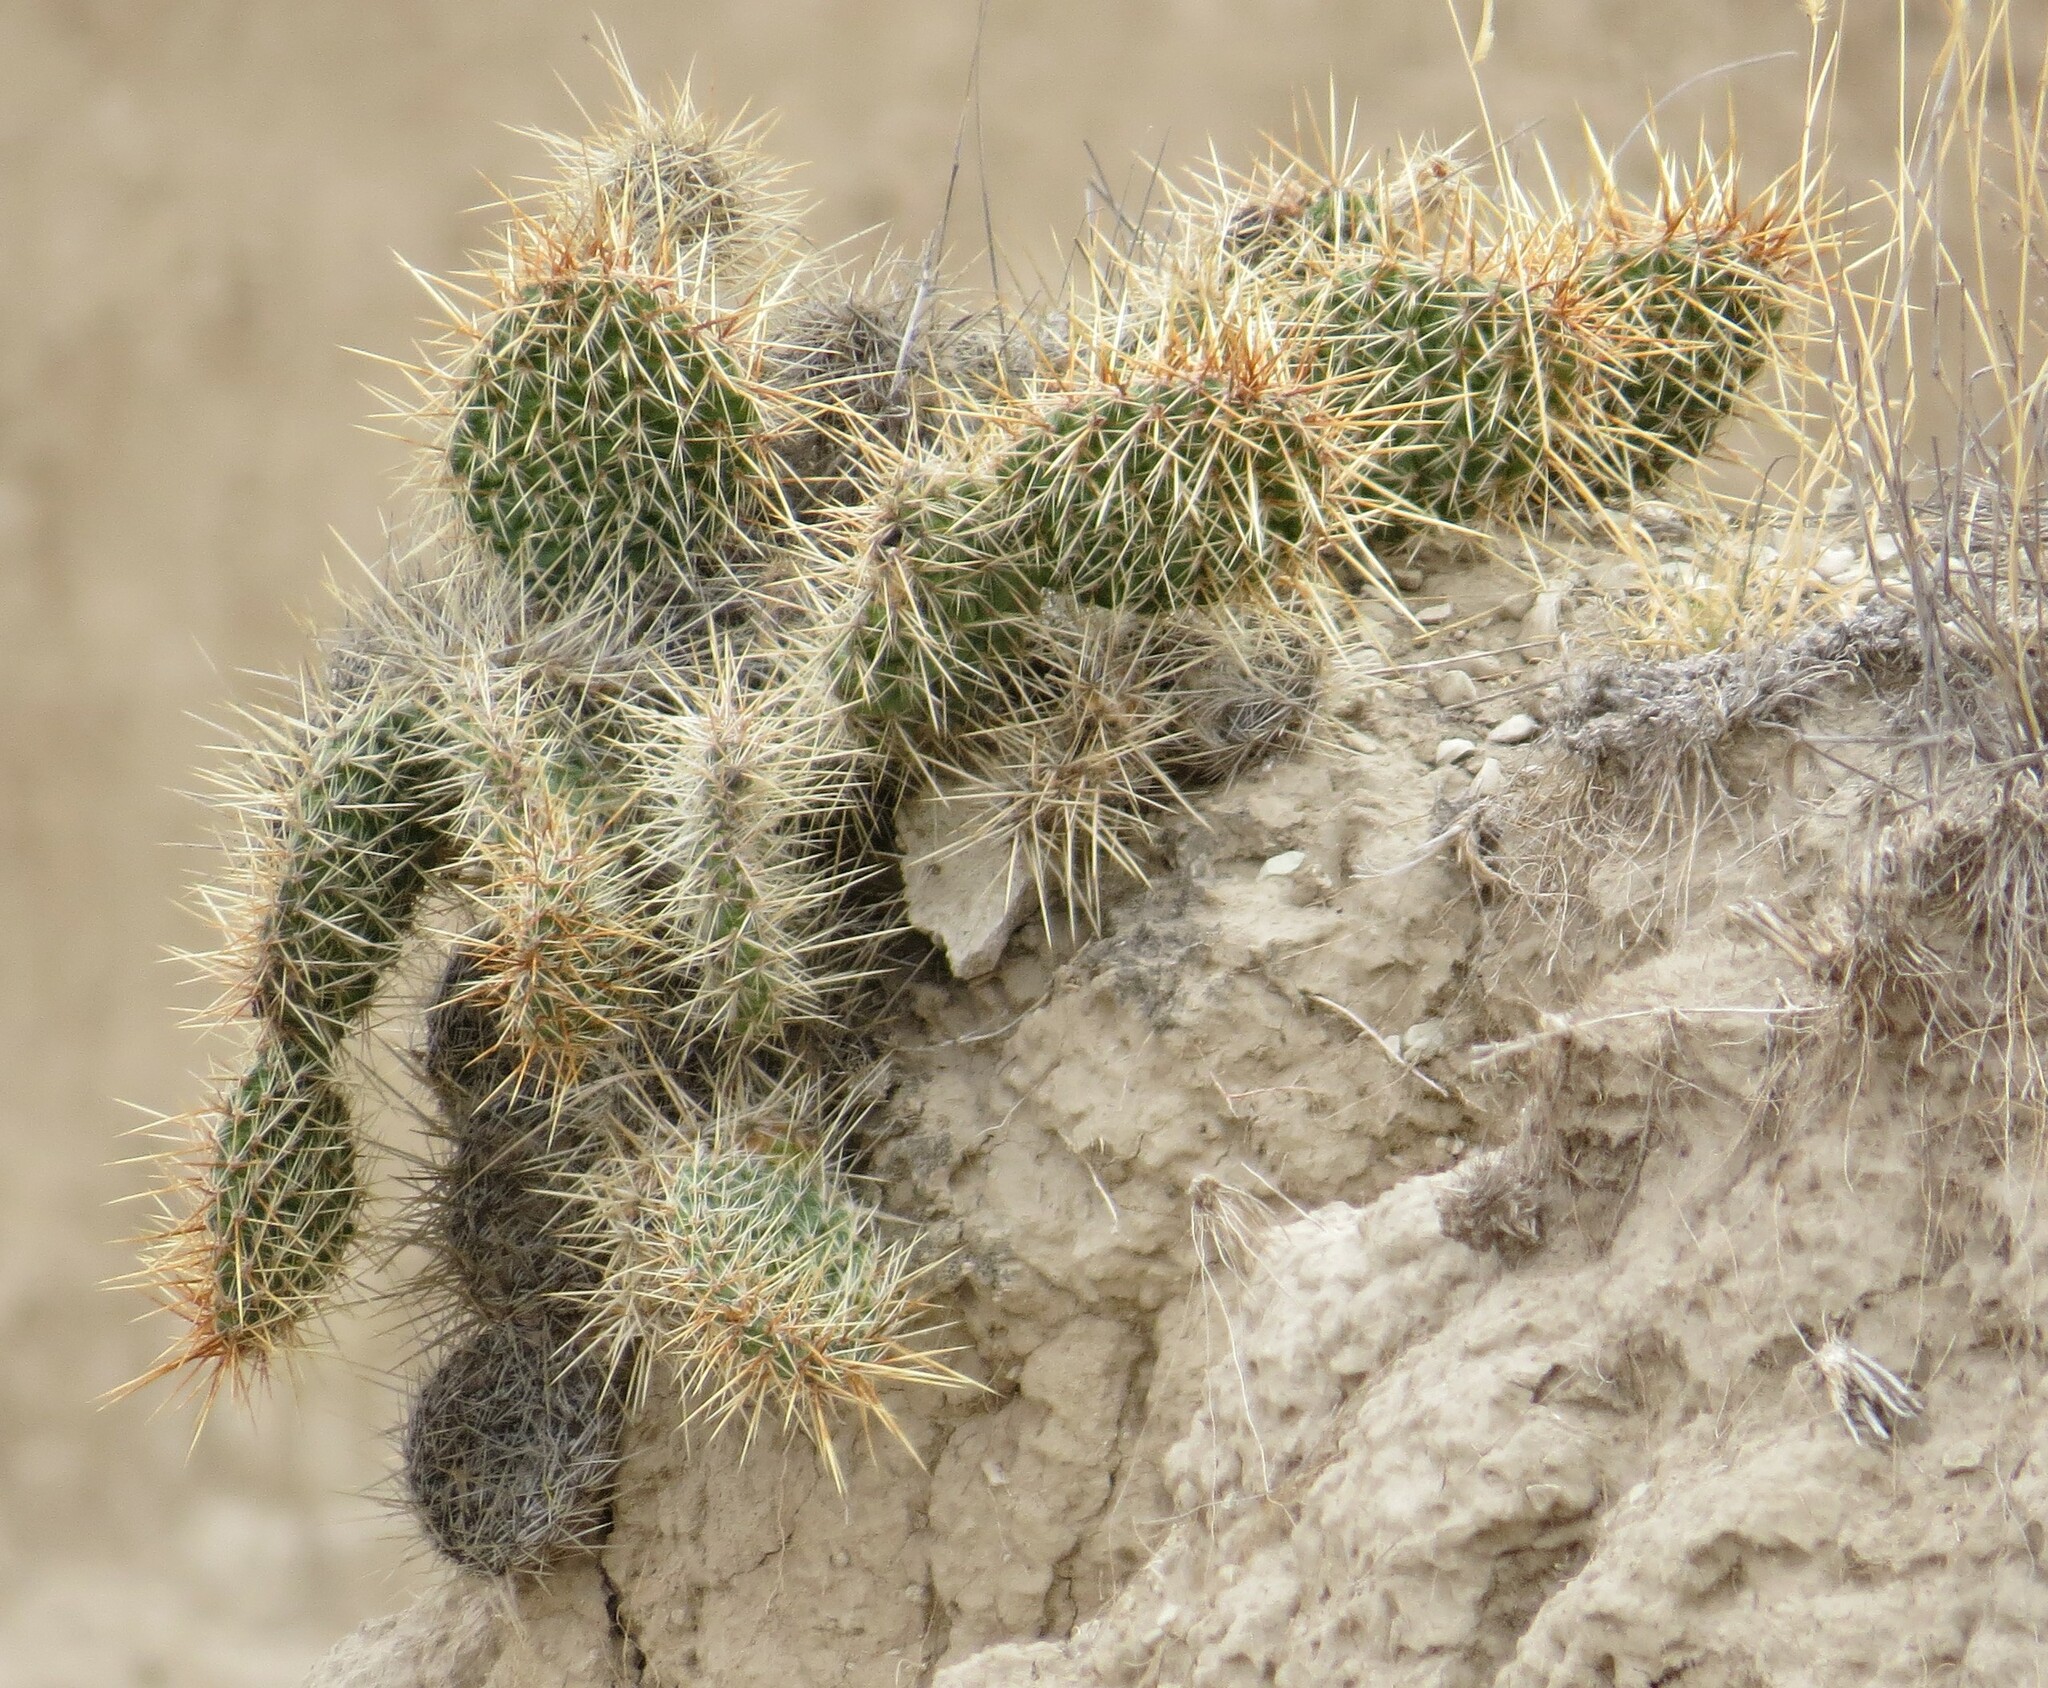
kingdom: Plantae
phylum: Tracheophyta
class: Magnoliopsida
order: Caryophyllales
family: Cactaceae
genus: Opuntia
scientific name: Opuntia polyacantha
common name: Plains prickly-pear
